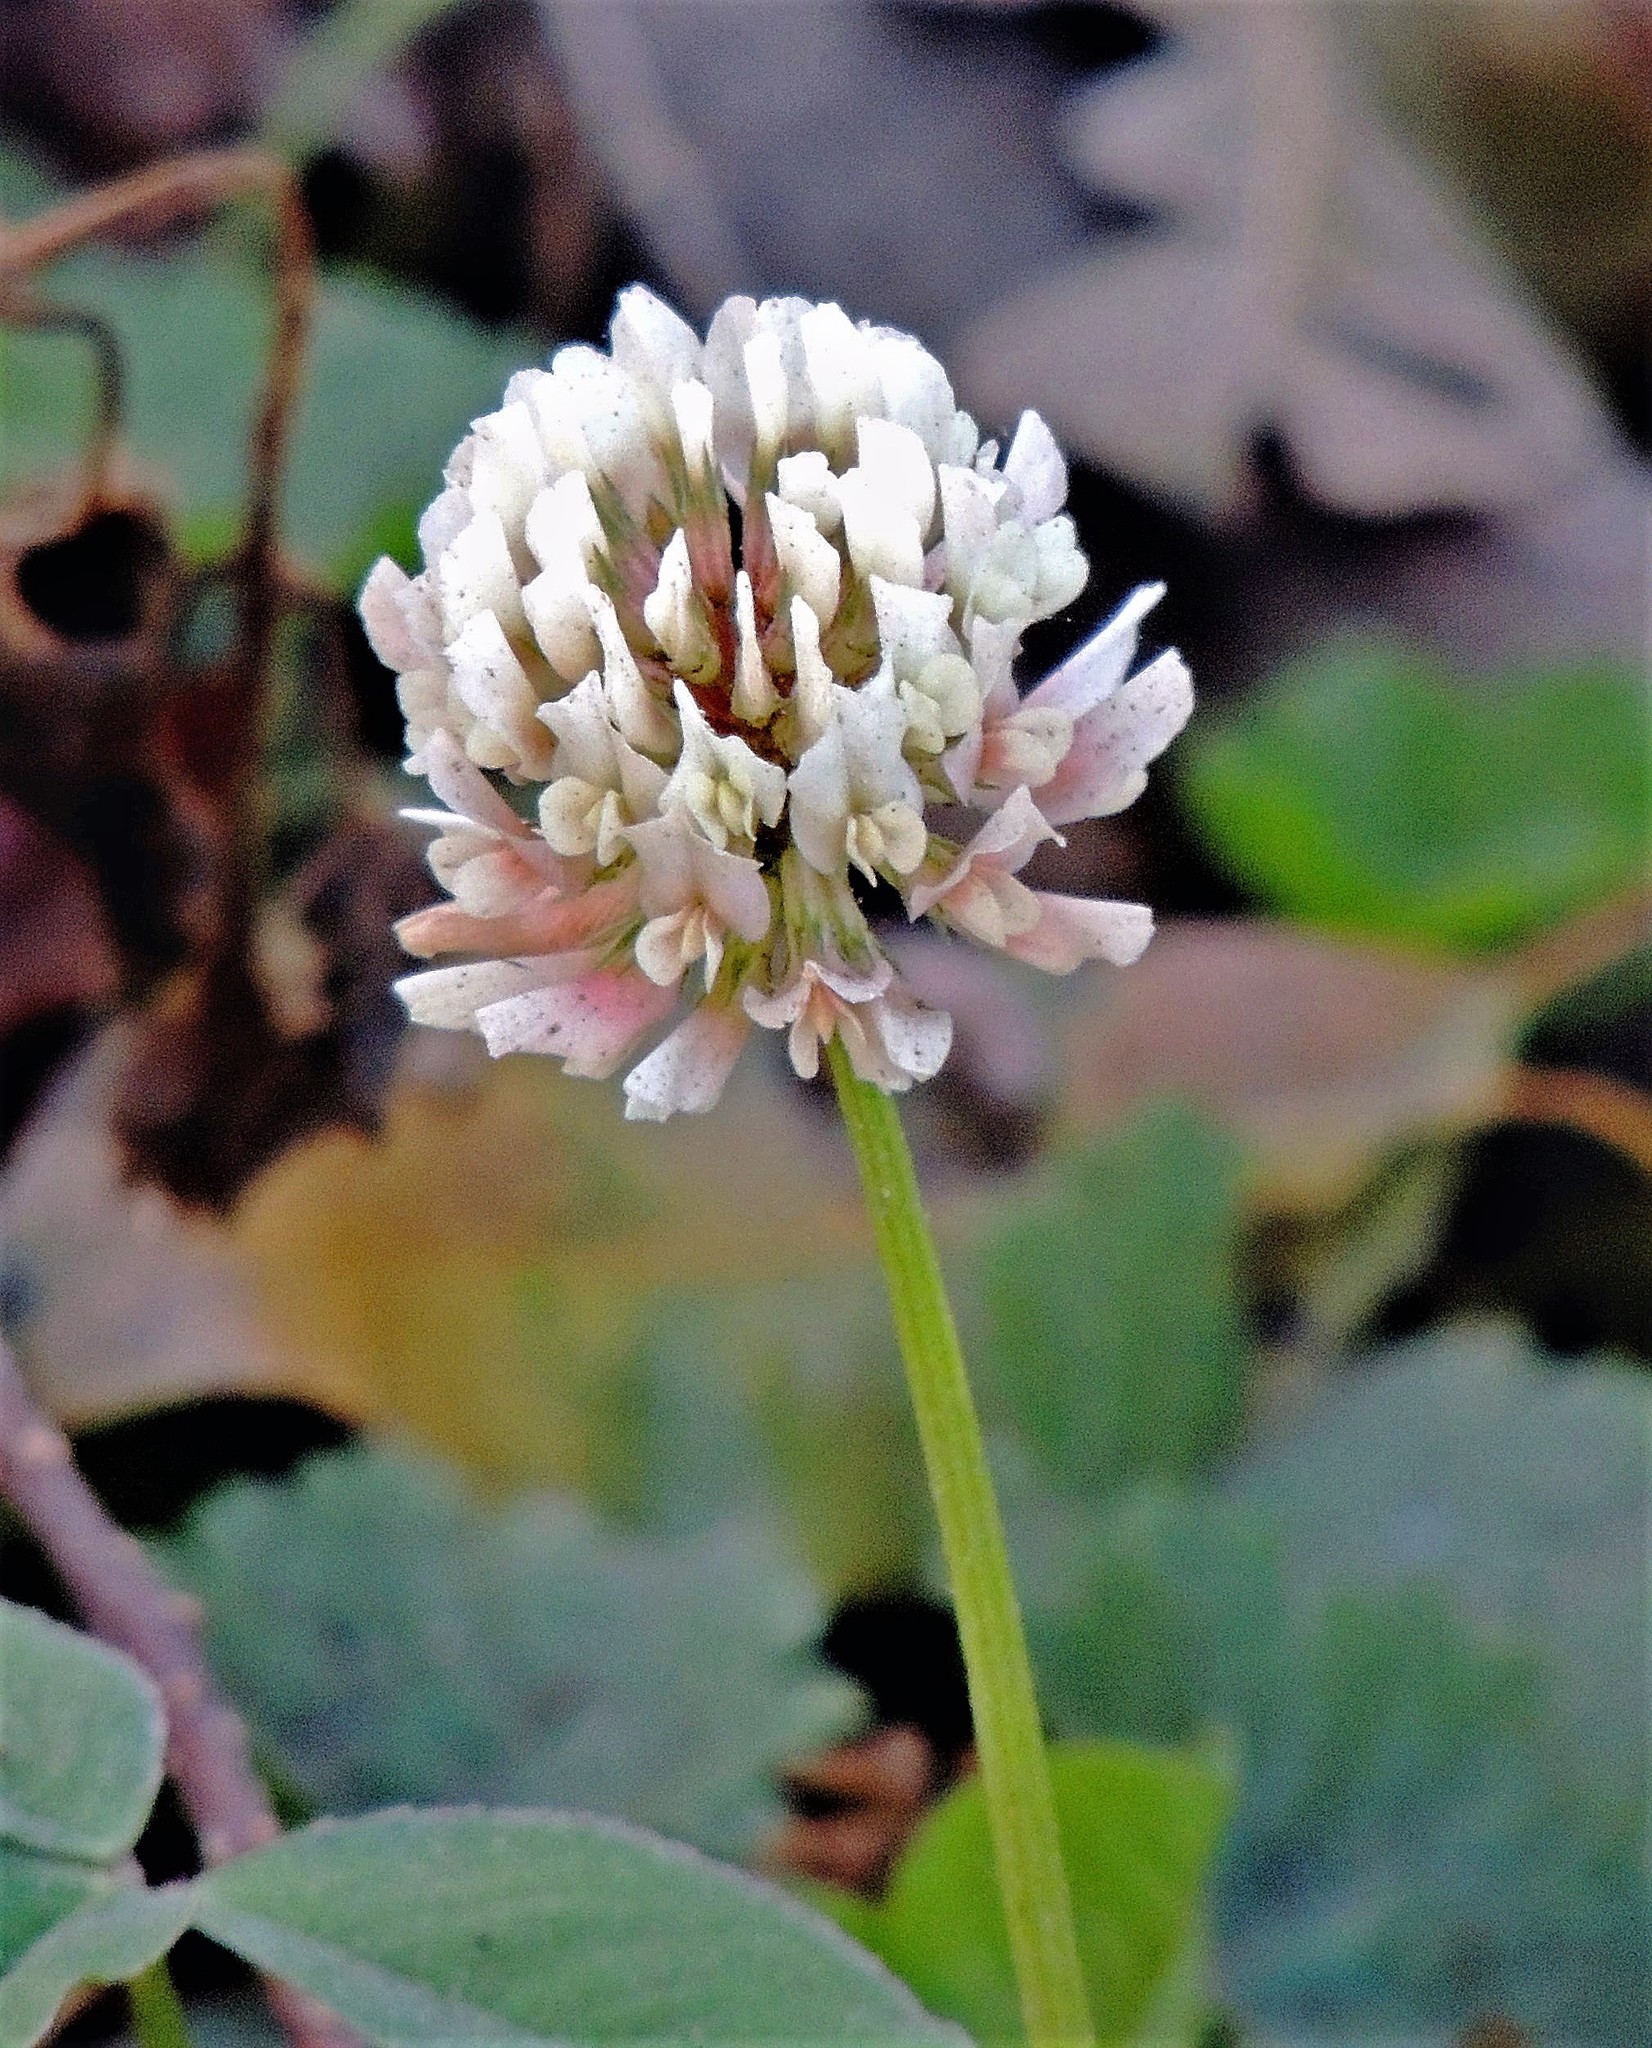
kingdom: Plantae
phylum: Tracheophyta
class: Magnoliopsida
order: Fabales
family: Fabaceae
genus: Trifolium
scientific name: Trifolium repens
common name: White clover
